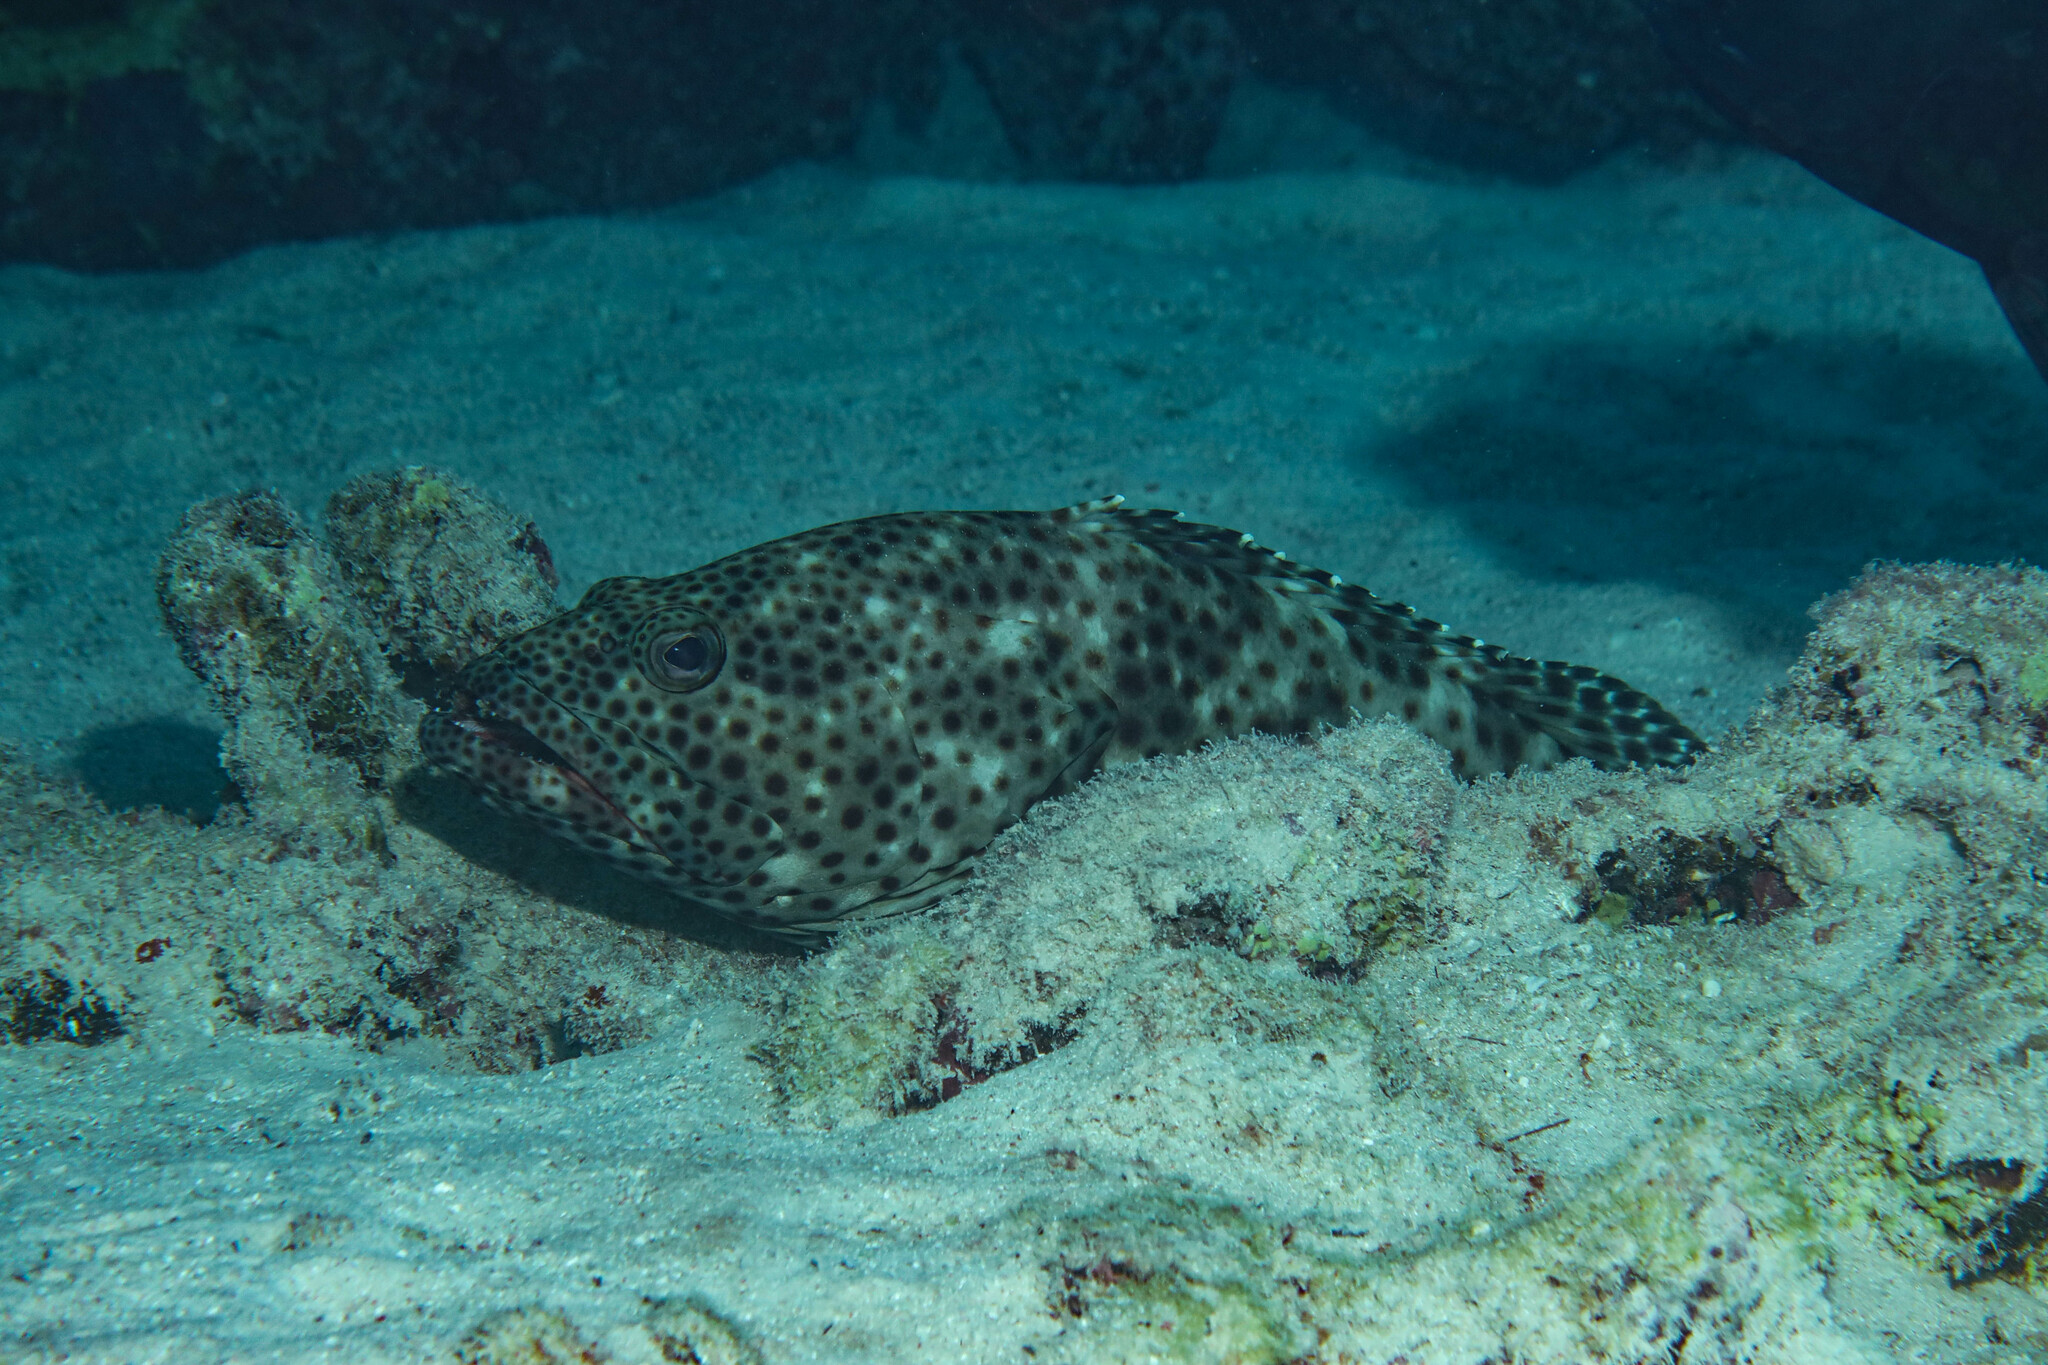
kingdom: Animalia
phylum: Chordata
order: Perciformes
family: Serranidae
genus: Epinephelus
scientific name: Epinephelus tauvina
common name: Greasy grouper
